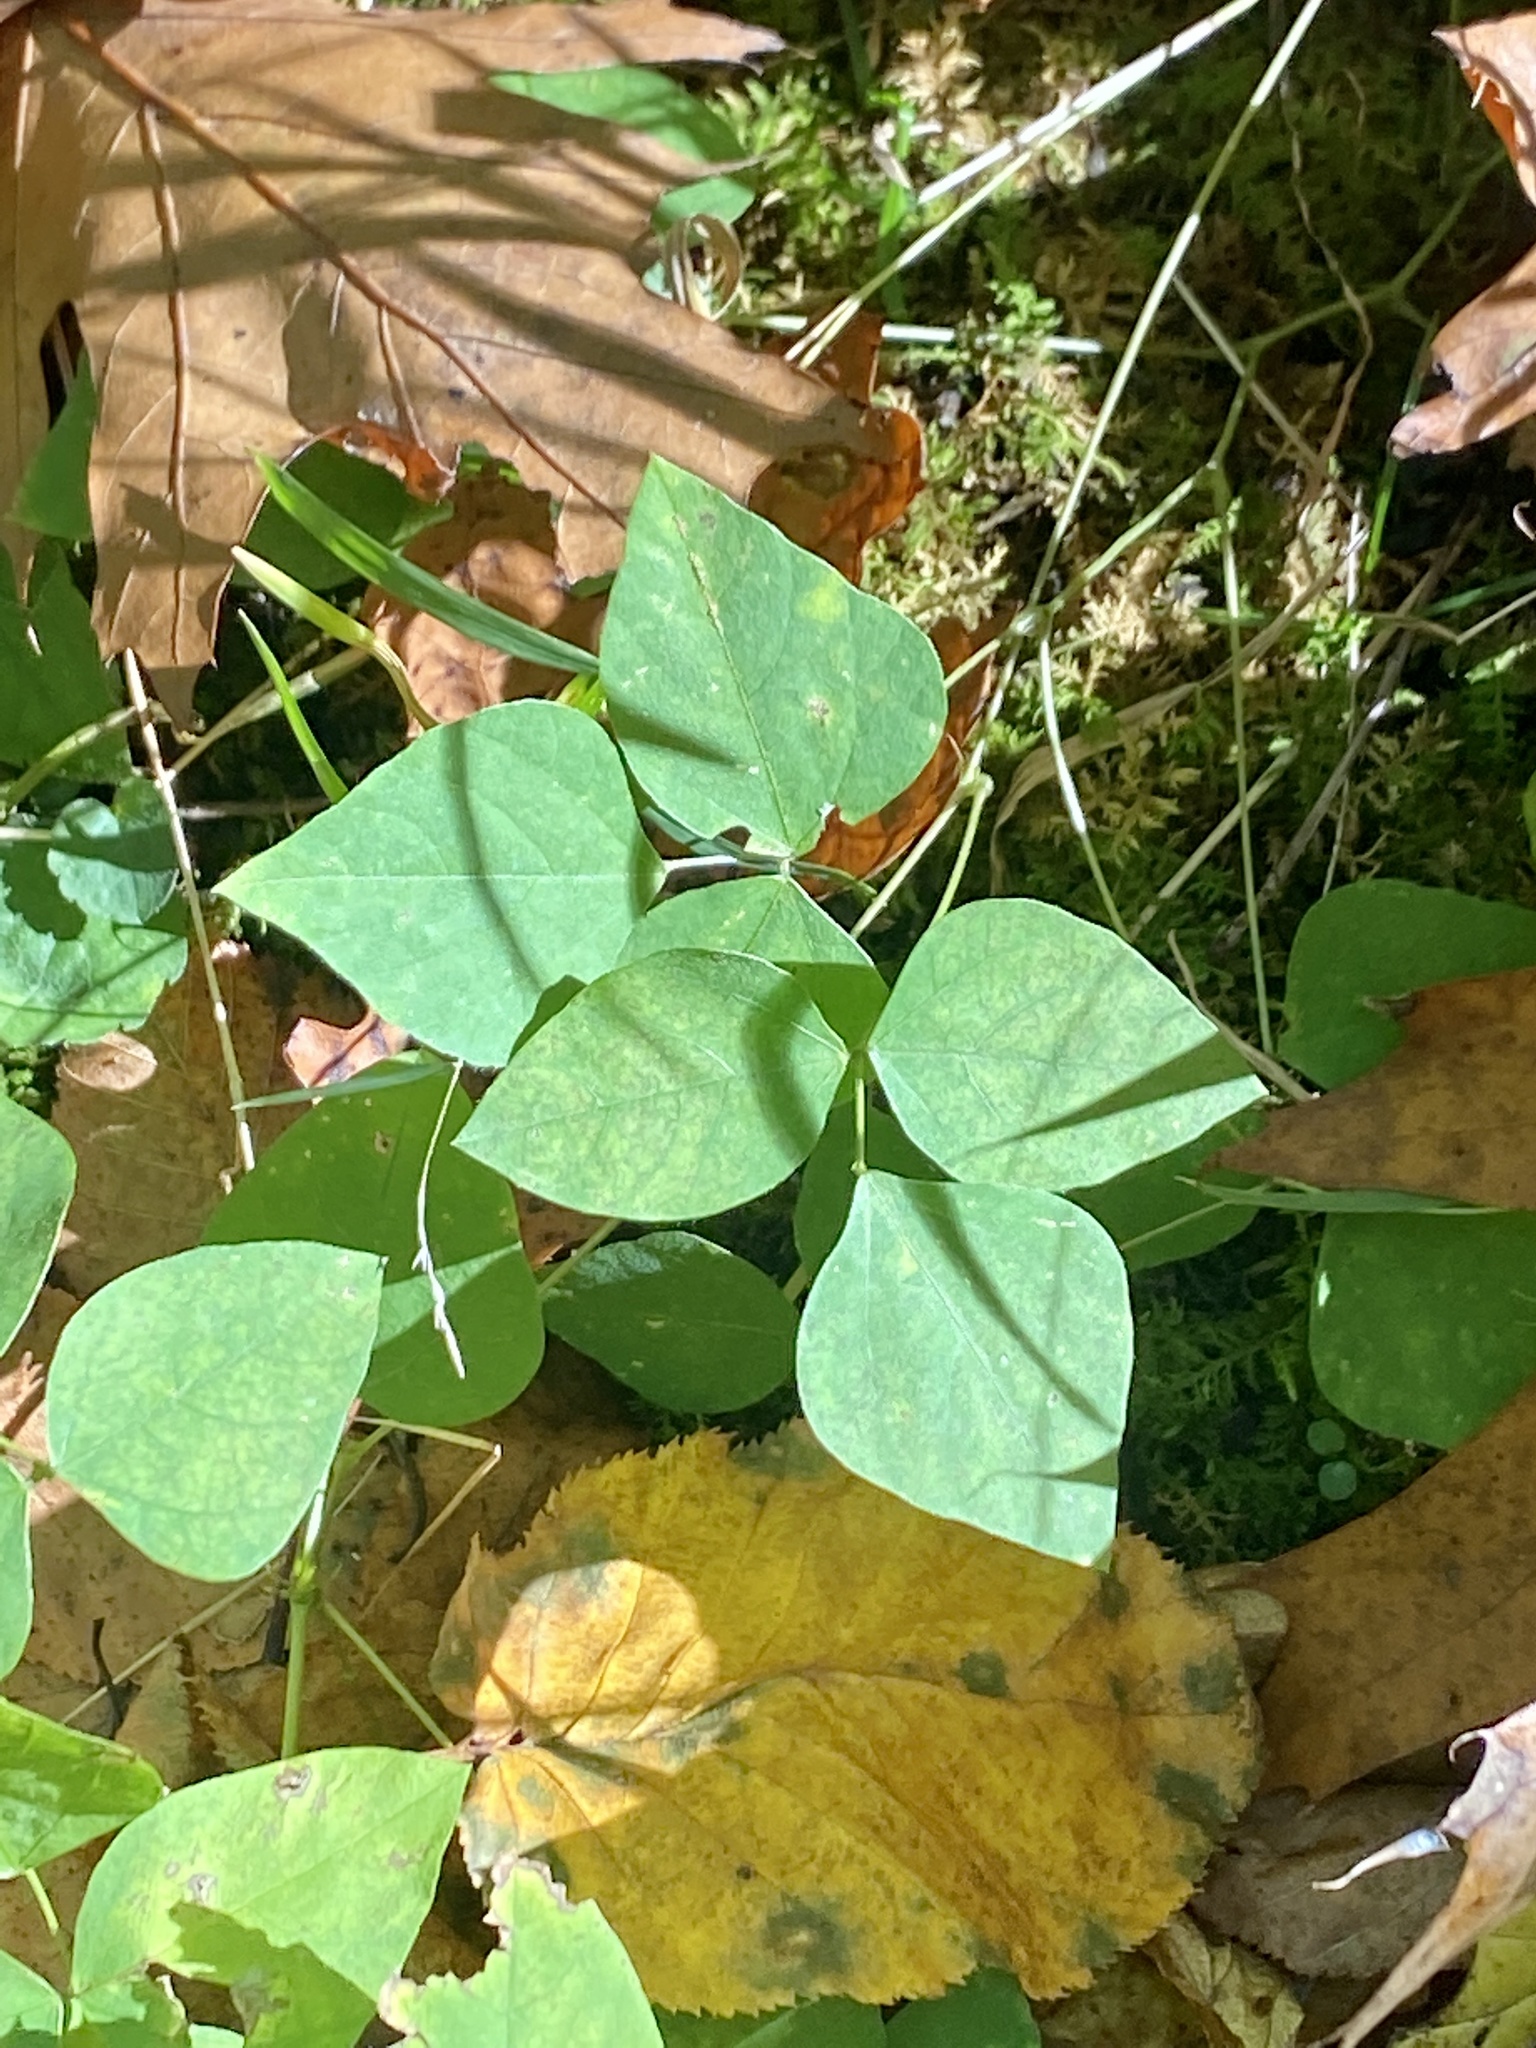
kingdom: Plantae
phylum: Tracheophyta
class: Magnoliopsida
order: Fabales
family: Fabaceae
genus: Amphicarpaea
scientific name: Amphicarpaea bracteata
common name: American hog peanut
